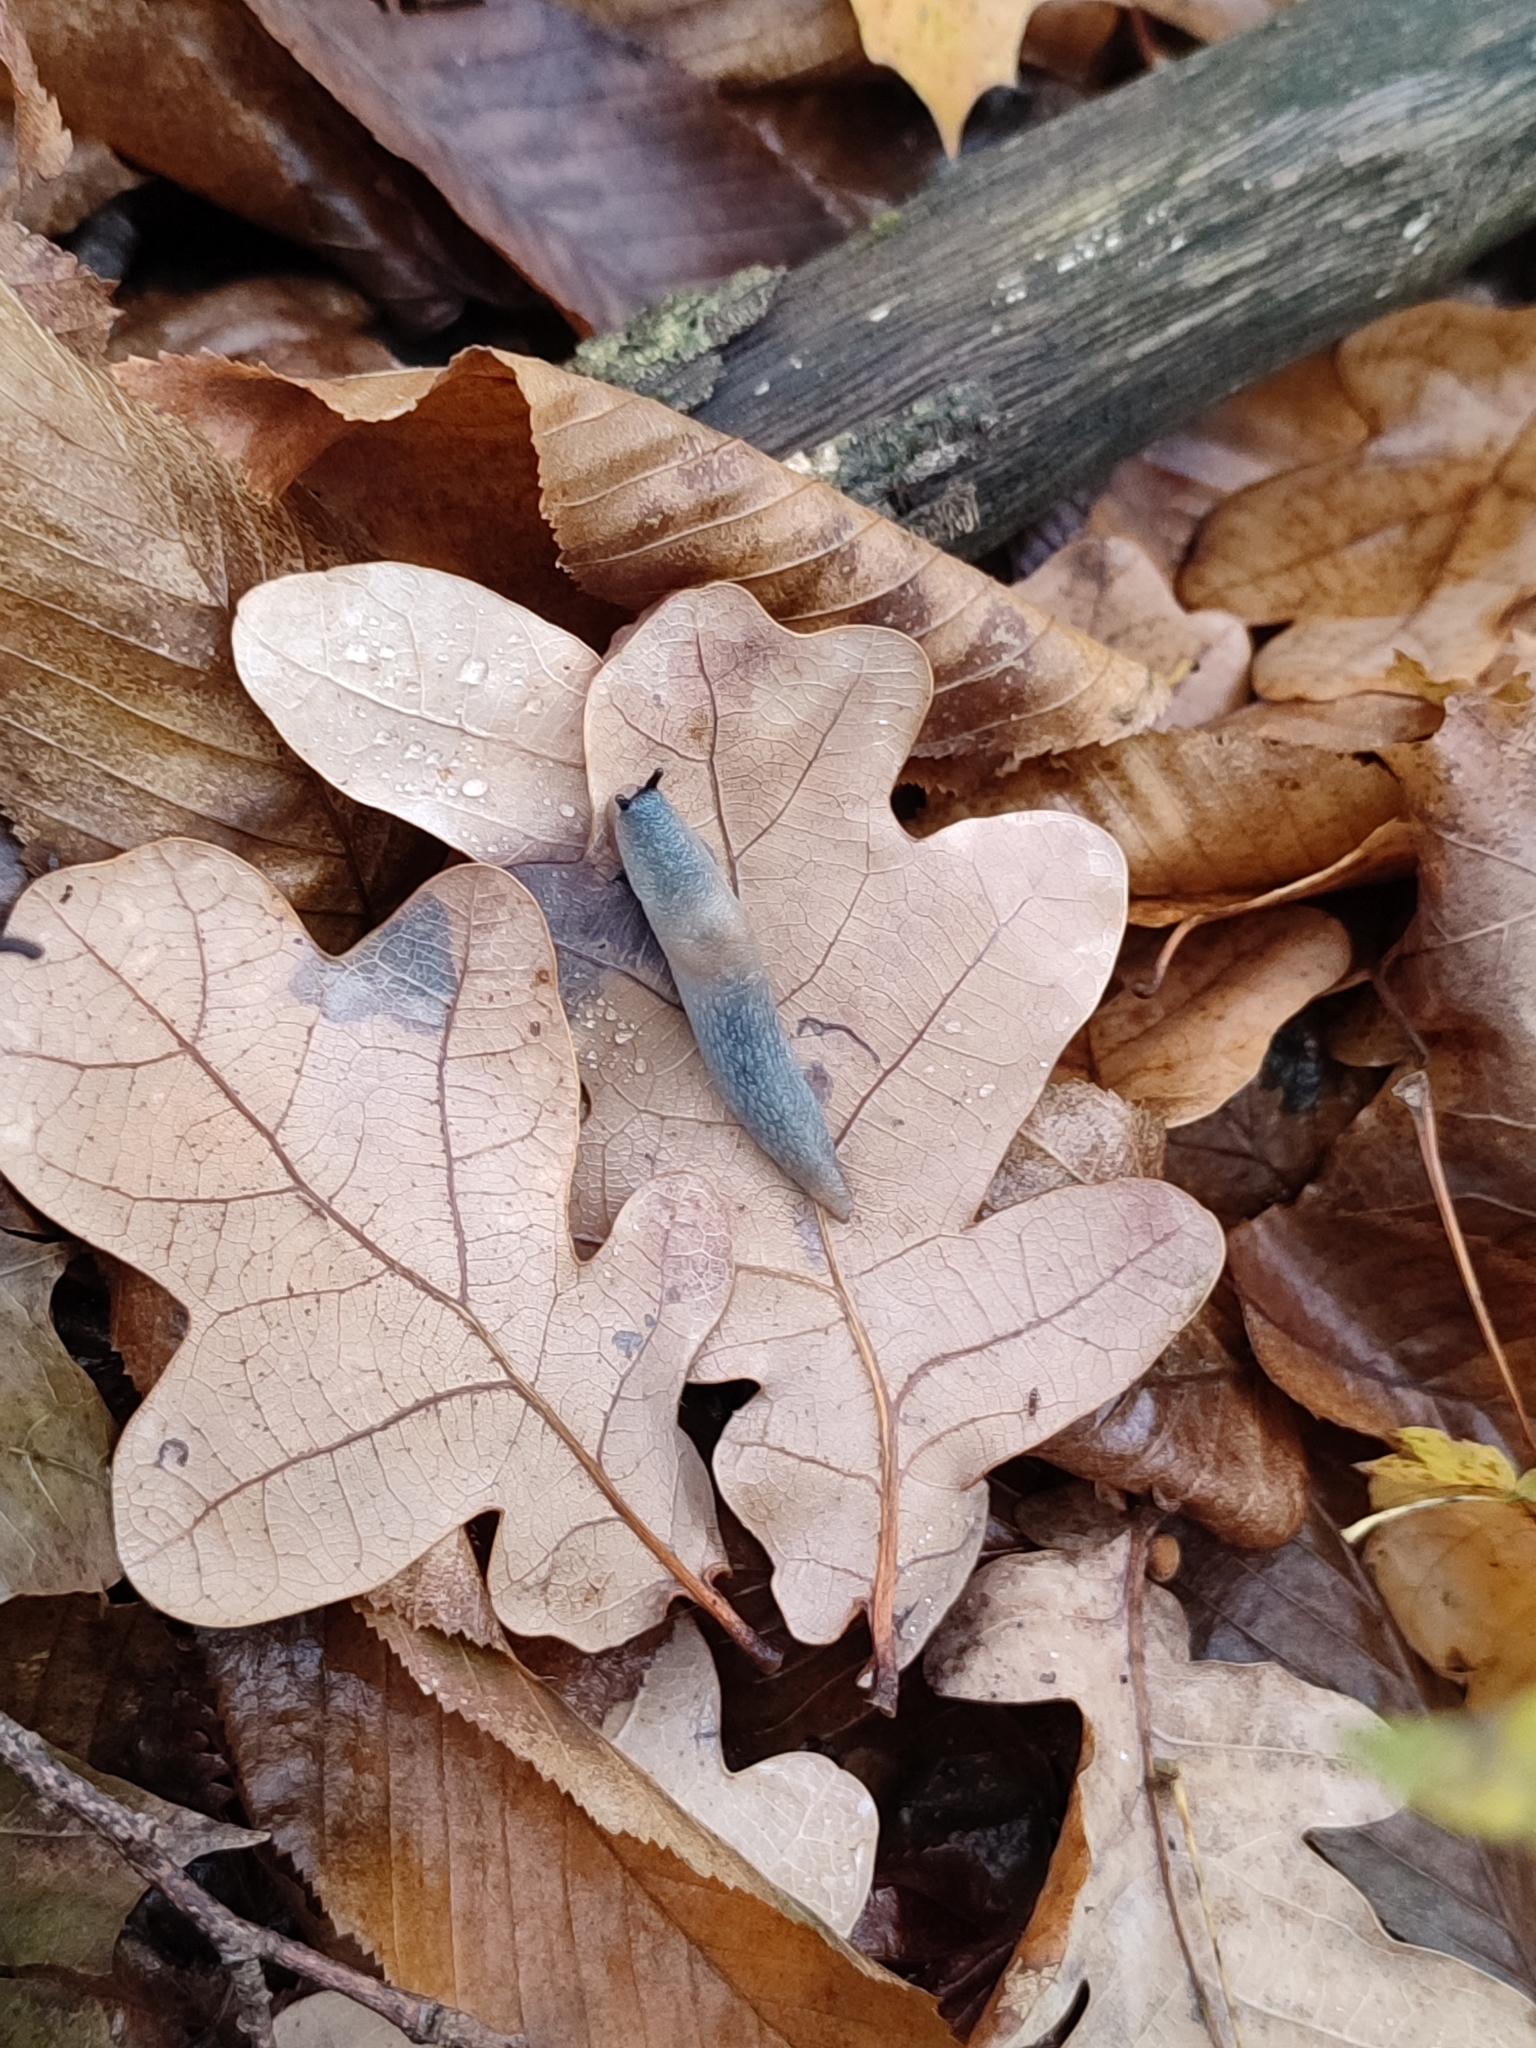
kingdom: Animalia
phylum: Mollusca
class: Gastropoda
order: Stylommatophora
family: Agriolimacidae
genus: Krynickillus
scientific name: Krynickillus melanocephalus
